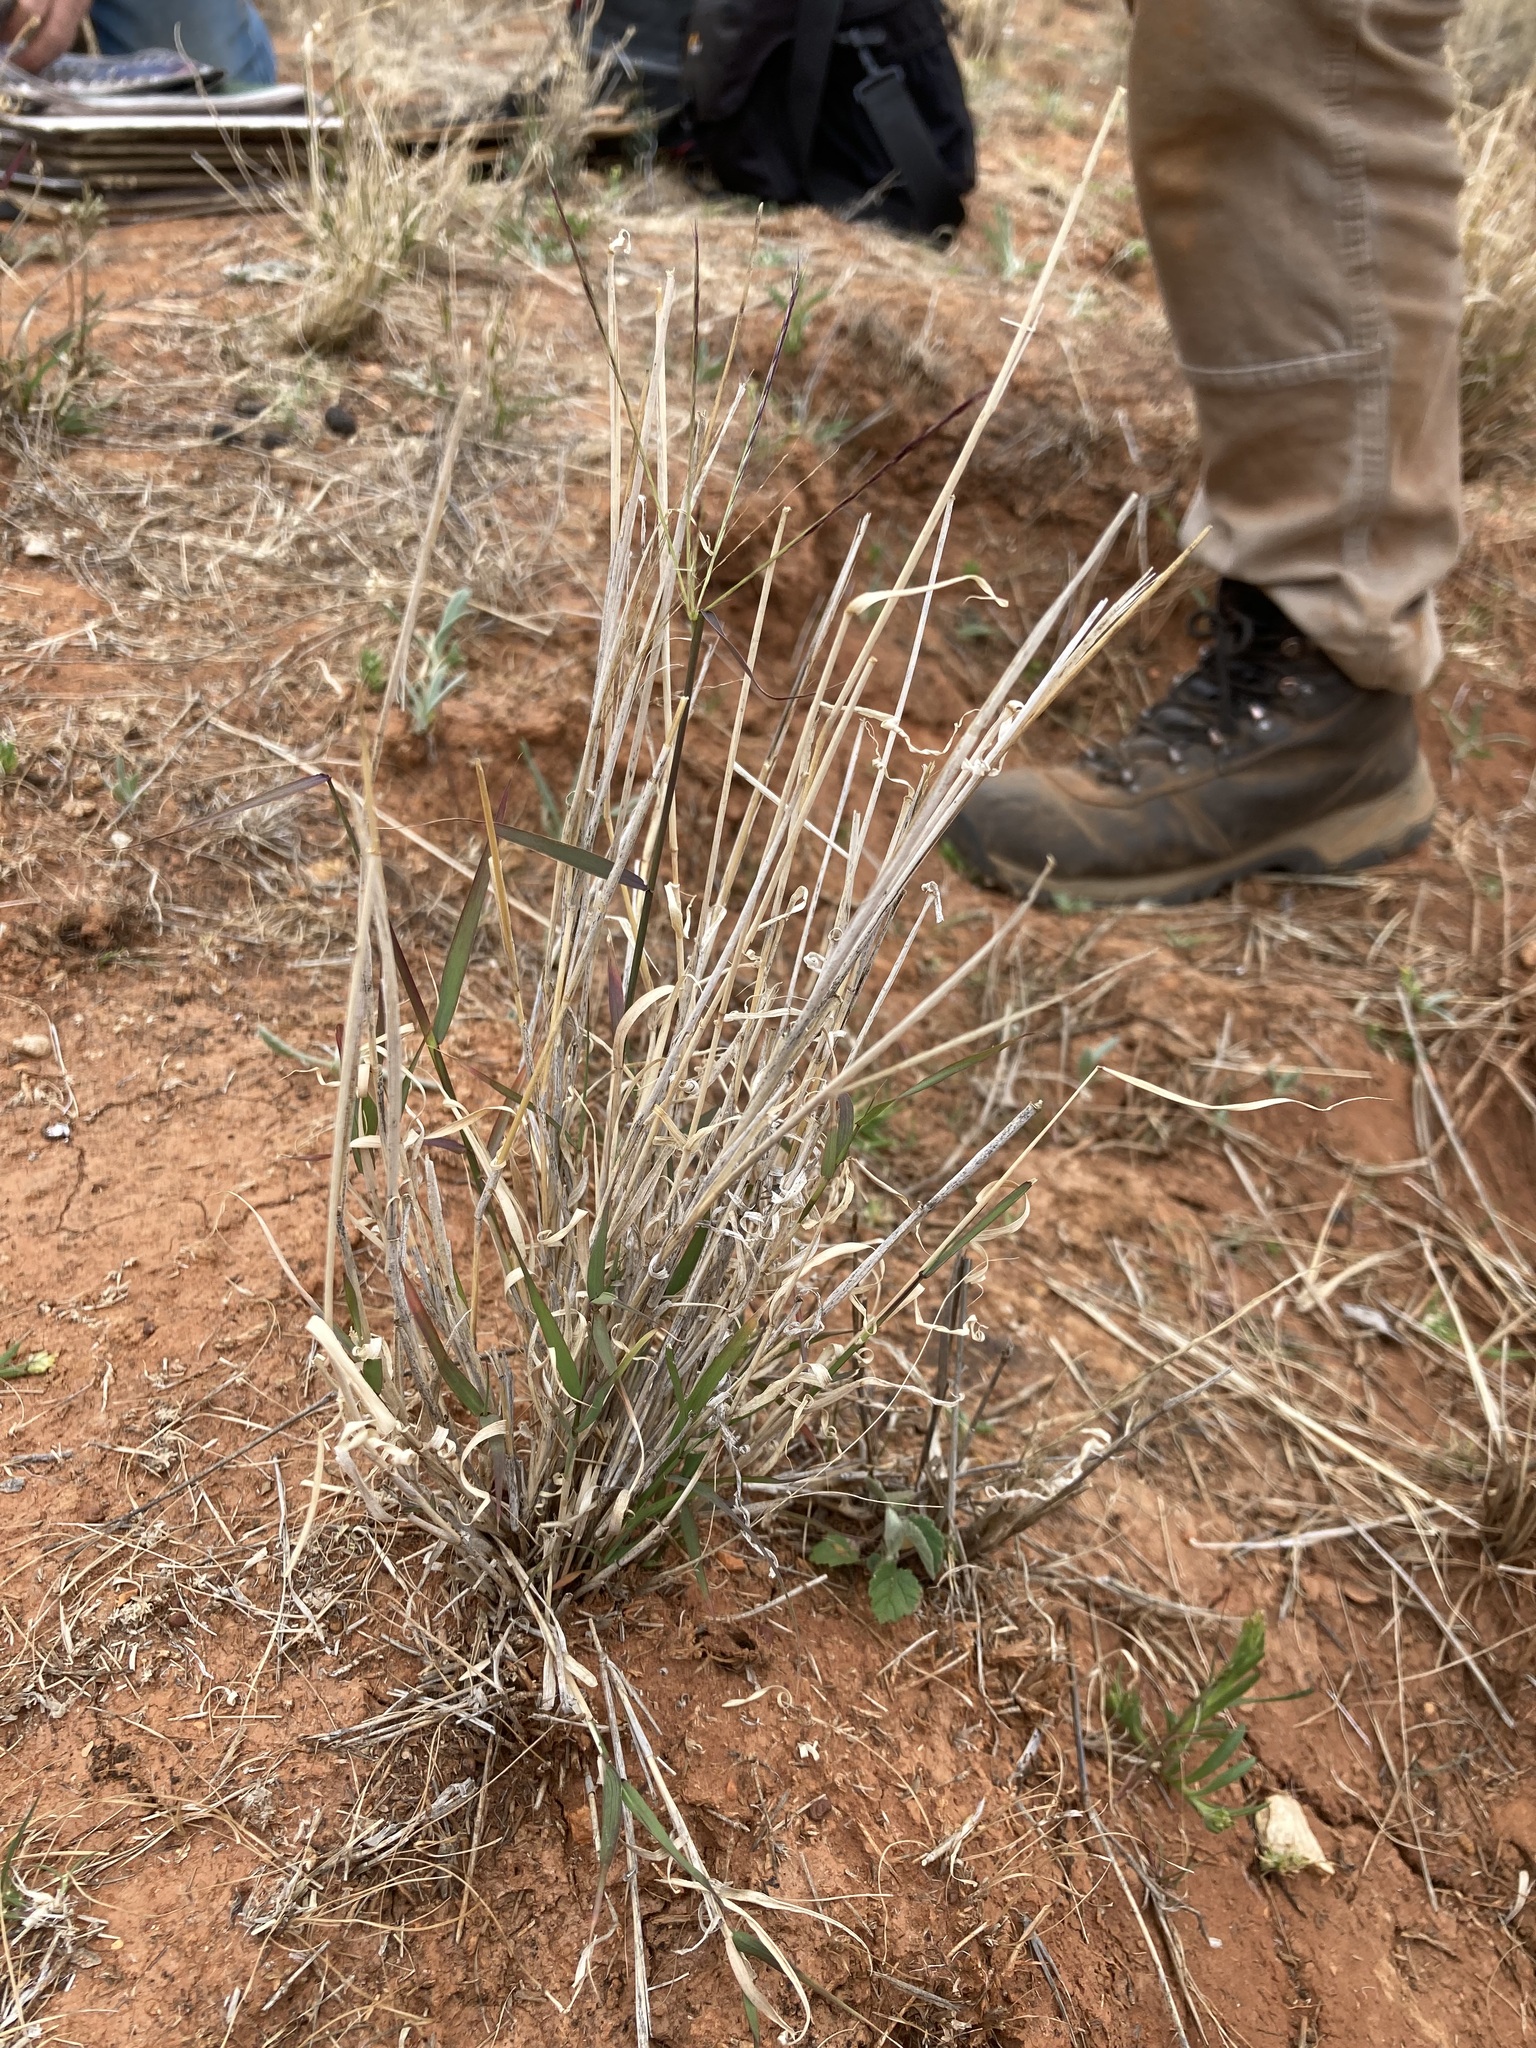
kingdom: Plantae
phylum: Tracheophyta
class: Liliopsida
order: Poales
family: Poaceae
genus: Enteropogon
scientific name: Enteropogon ramosus
